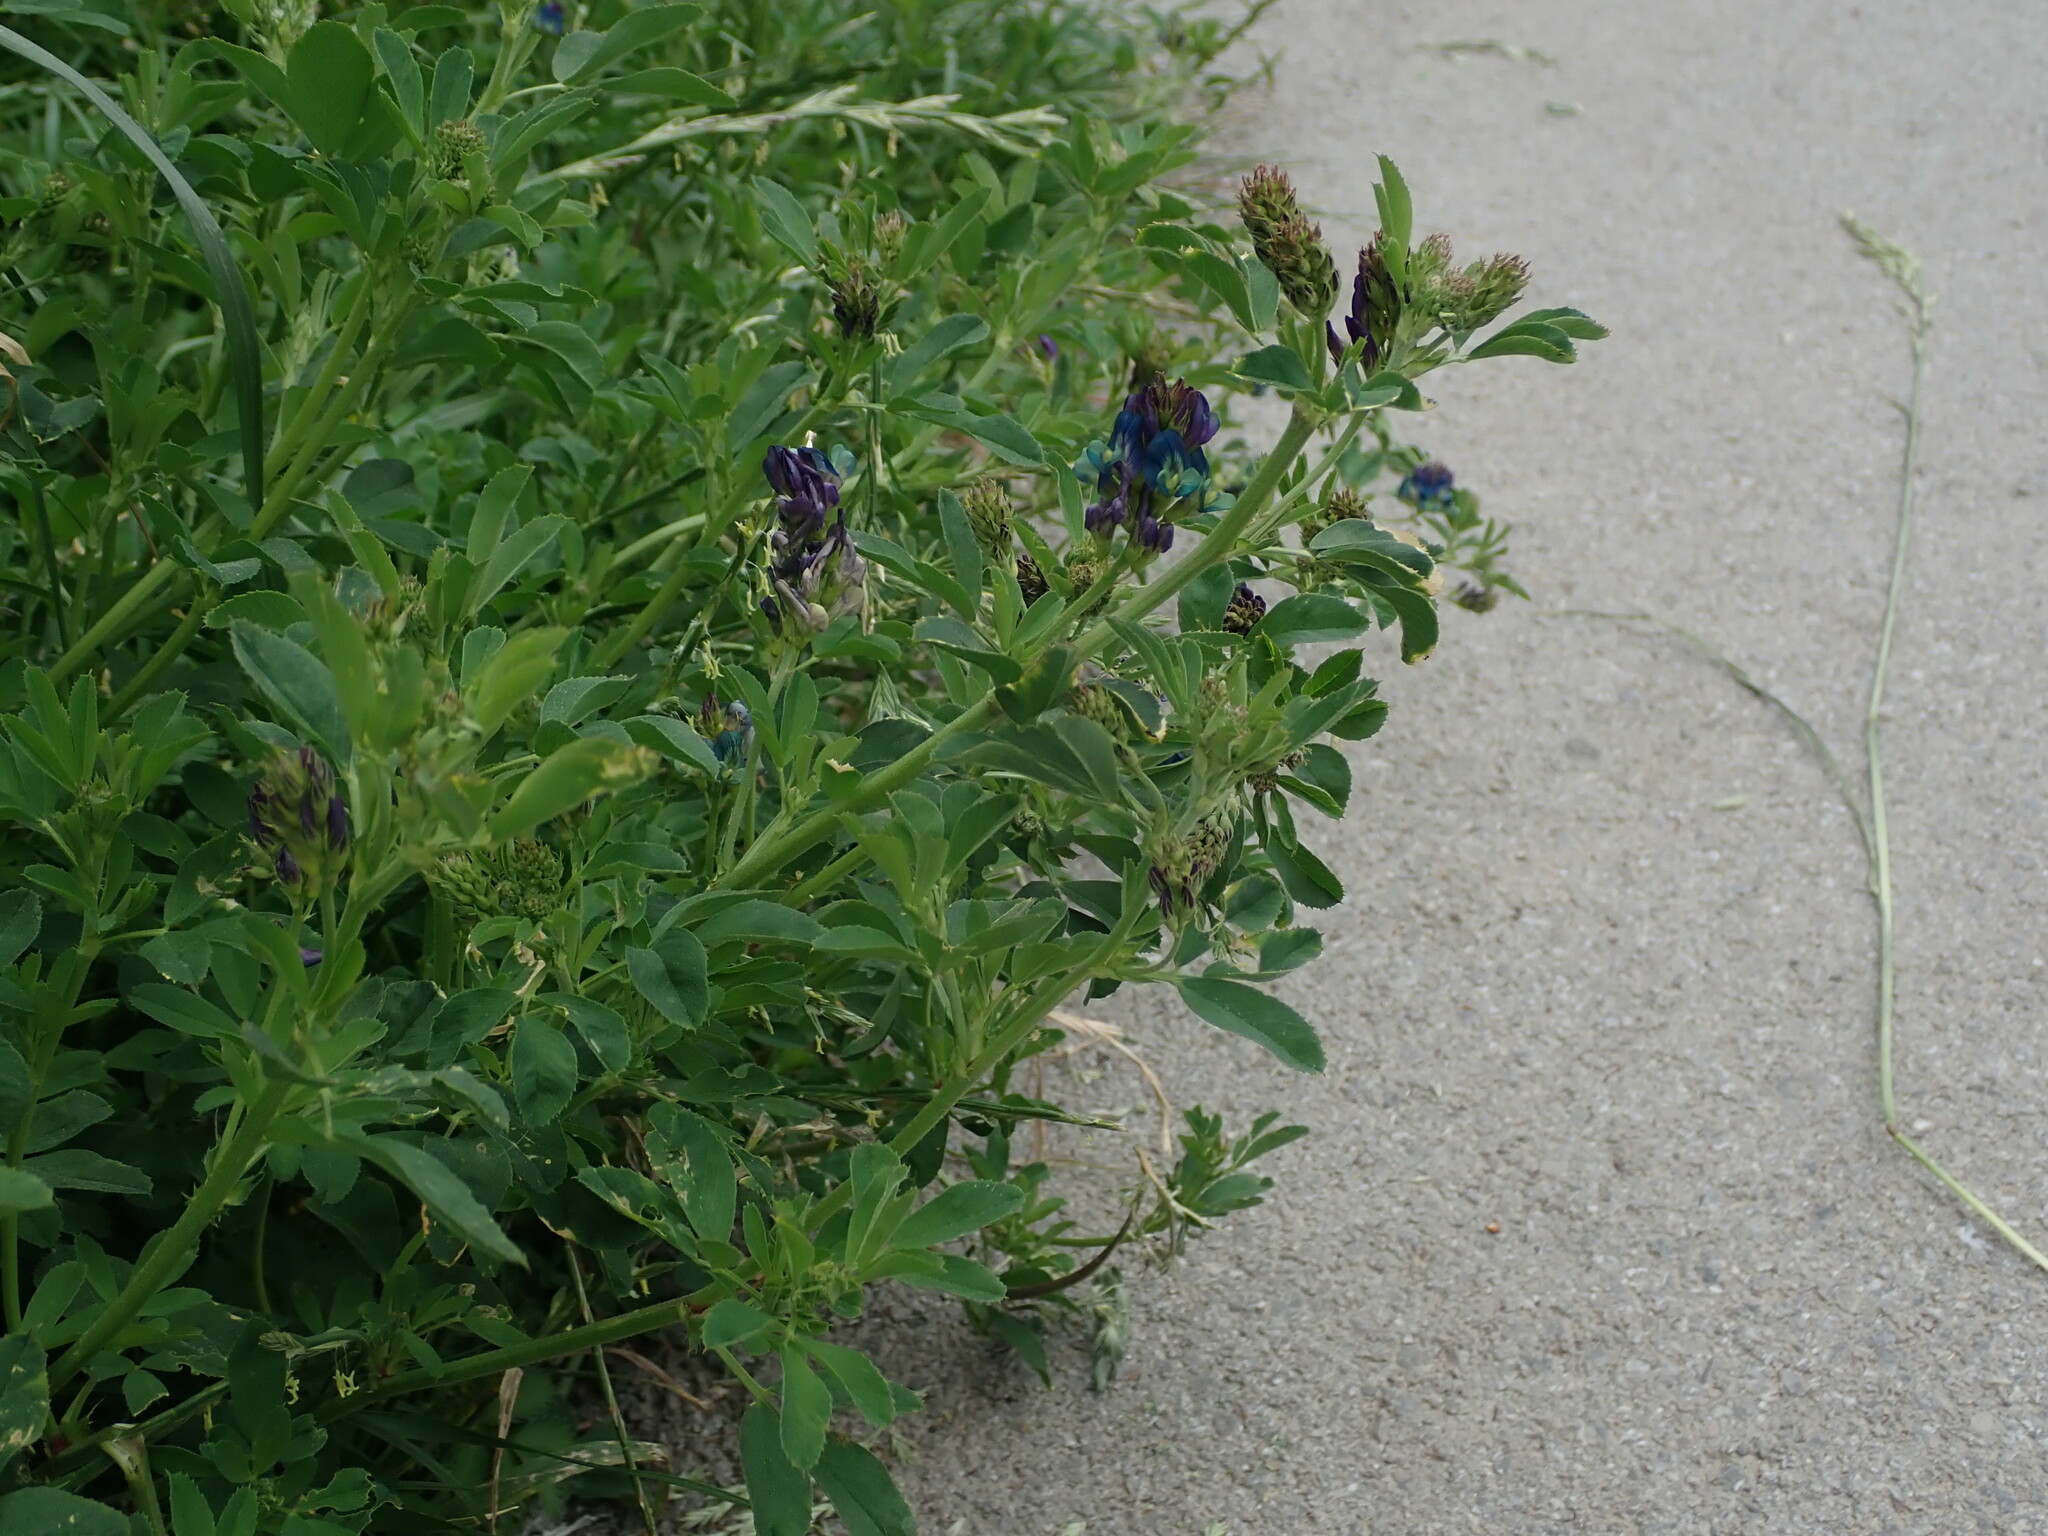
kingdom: Plantae
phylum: Tracheophyta
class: Magnoliopsida
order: Fabales
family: Fabaceae
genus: Medicago
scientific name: Medicago varia
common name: Sand lucerne
